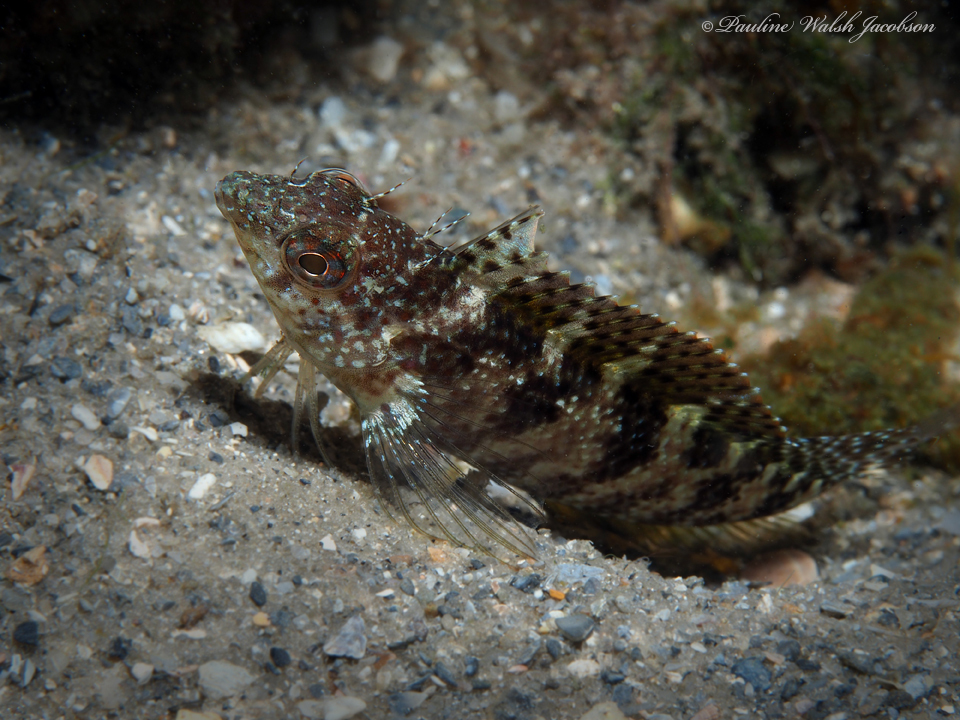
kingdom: Animalia
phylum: Chordata
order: Perciformes
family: Labrisomidae
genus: Malacoctenus
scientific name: Malacoctenus macropus
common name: Rosy blenny
